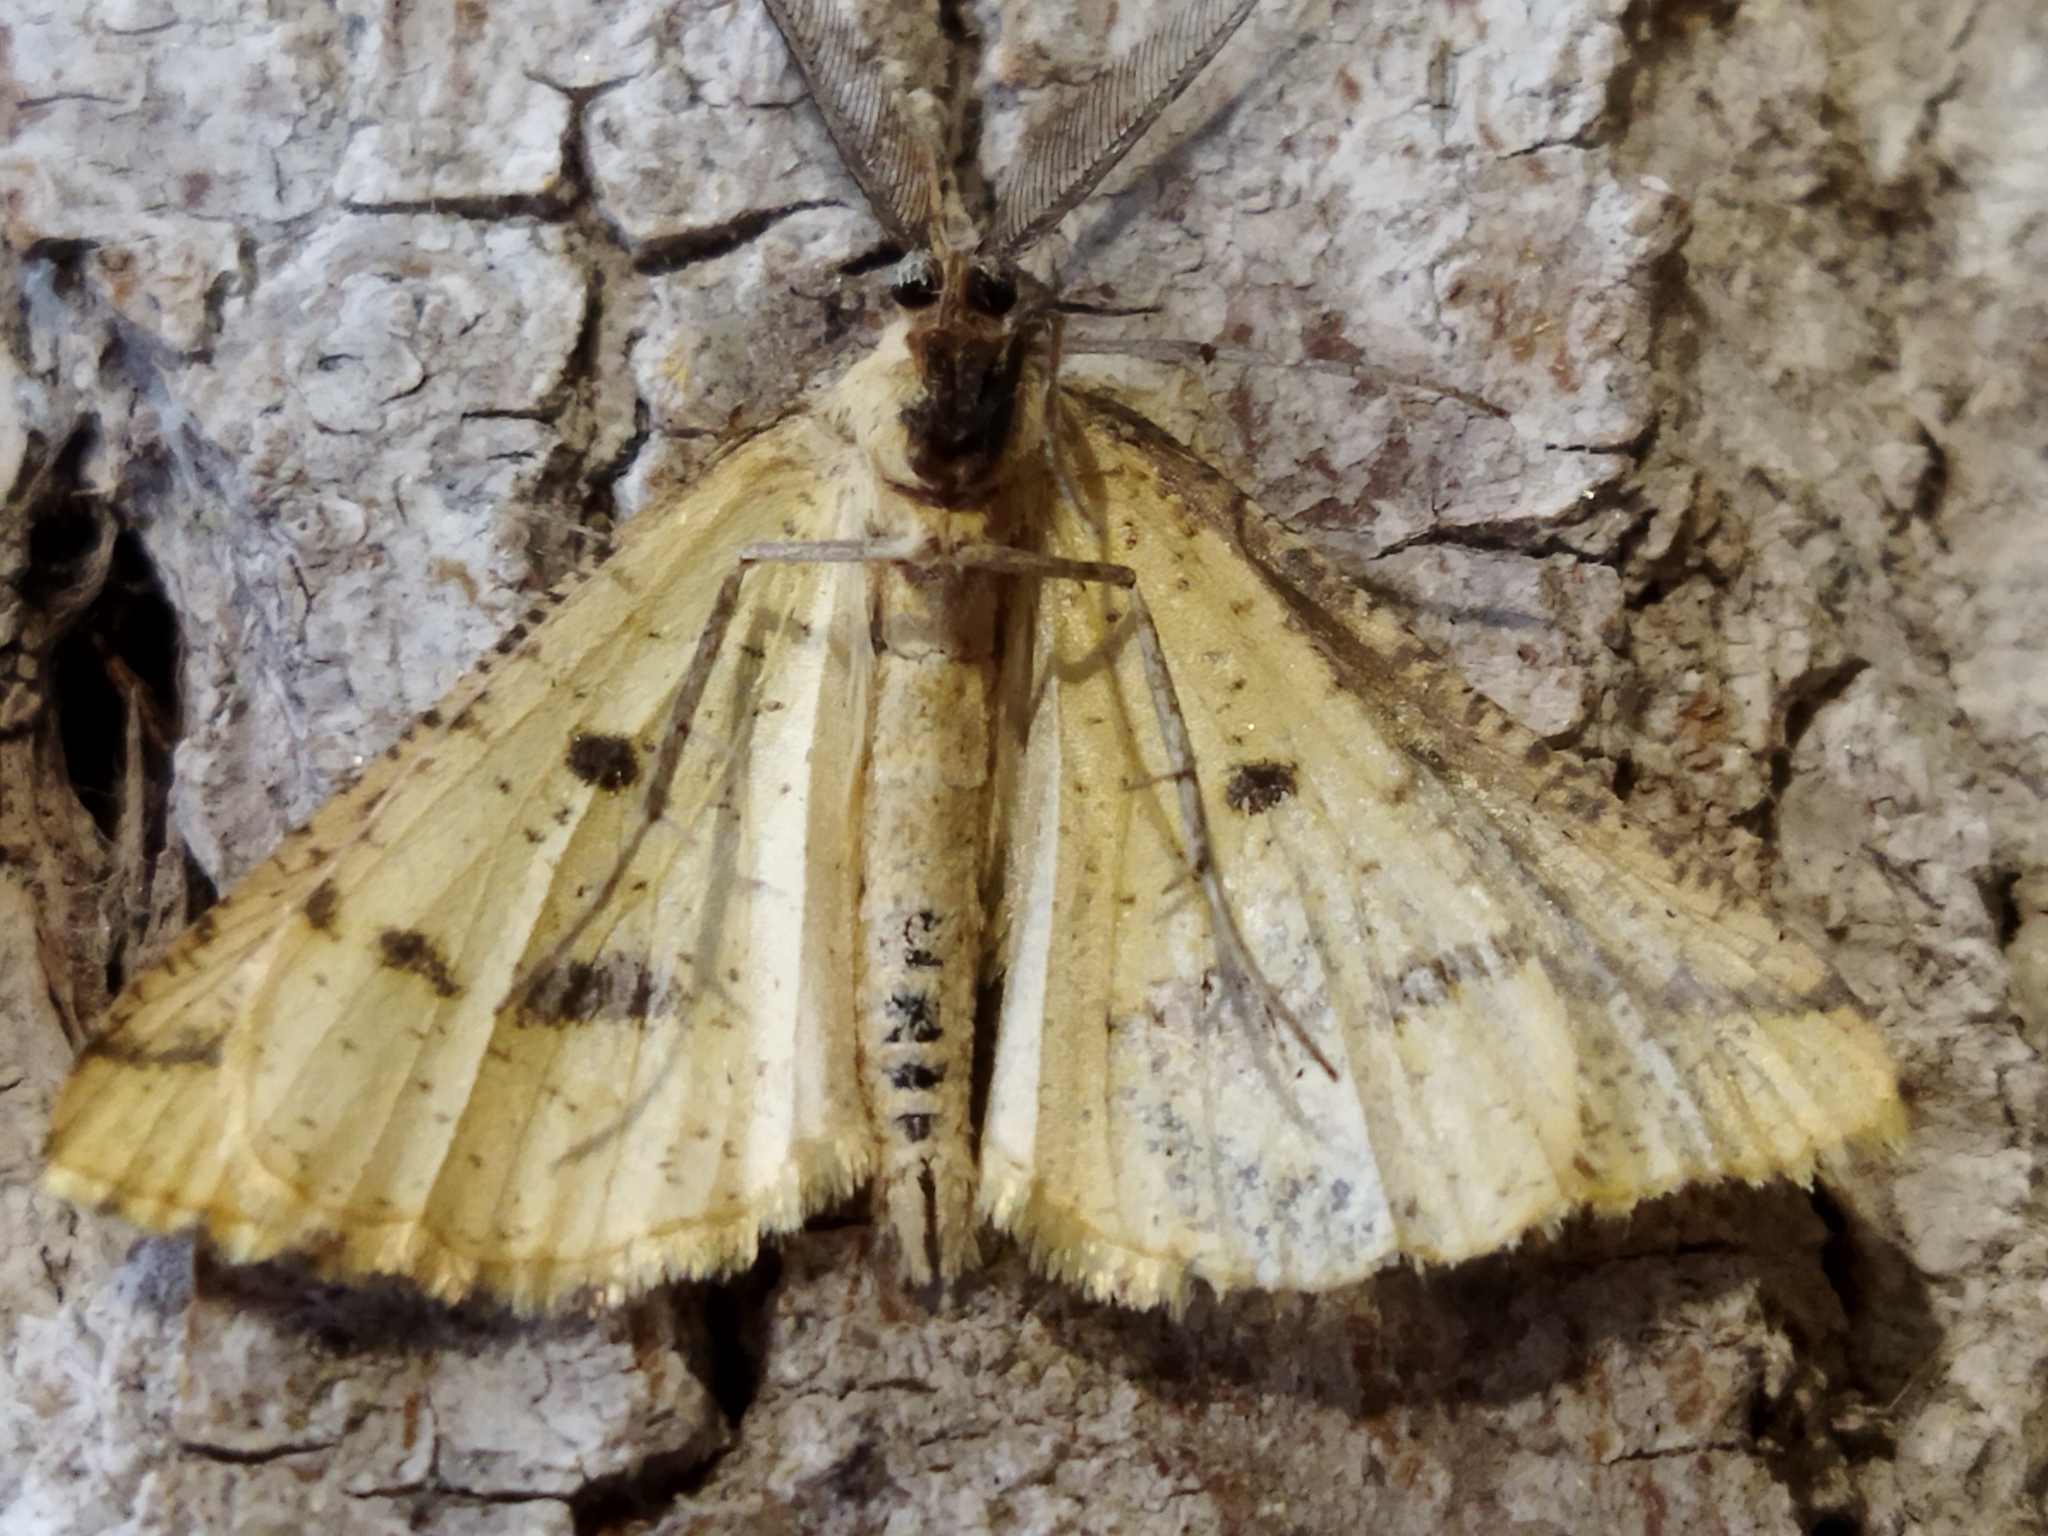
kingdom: Animalia
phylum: Arthropoda
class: Insecta
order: Lepidoptera
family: Geometridae
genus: Aspitates
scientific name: Aspitates ochrearia
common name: Yellow belle
